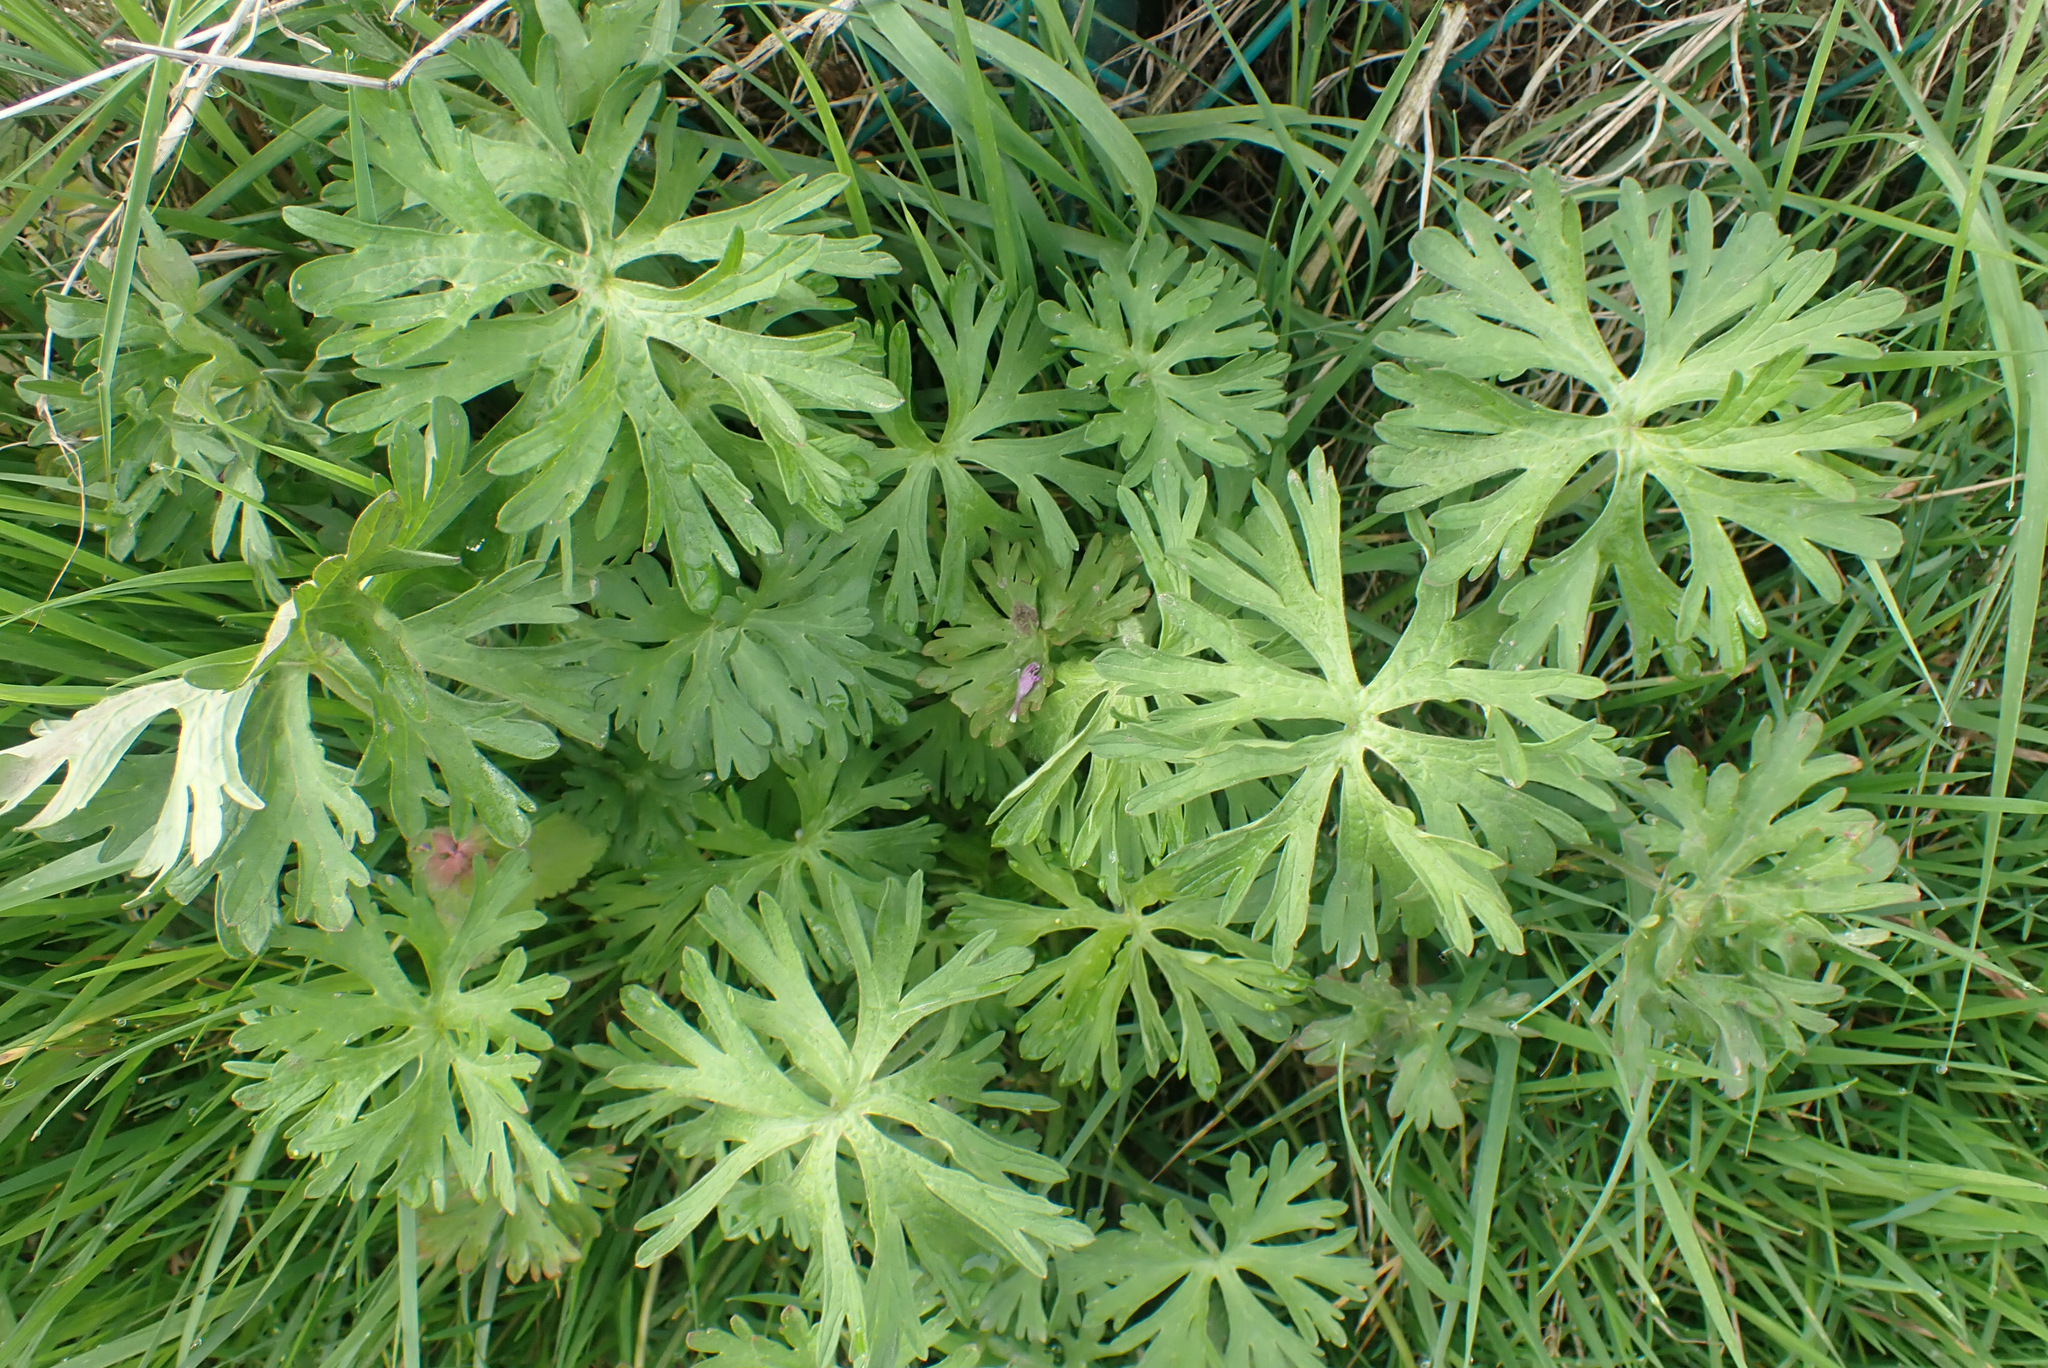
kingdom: Plantae
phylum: Tracheophyta
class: Magnoliopsida
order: Geraniales
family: Geraniaceae
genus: Geranium
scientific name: Geranium dissectum
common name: Cut-leaved crane's-bill
